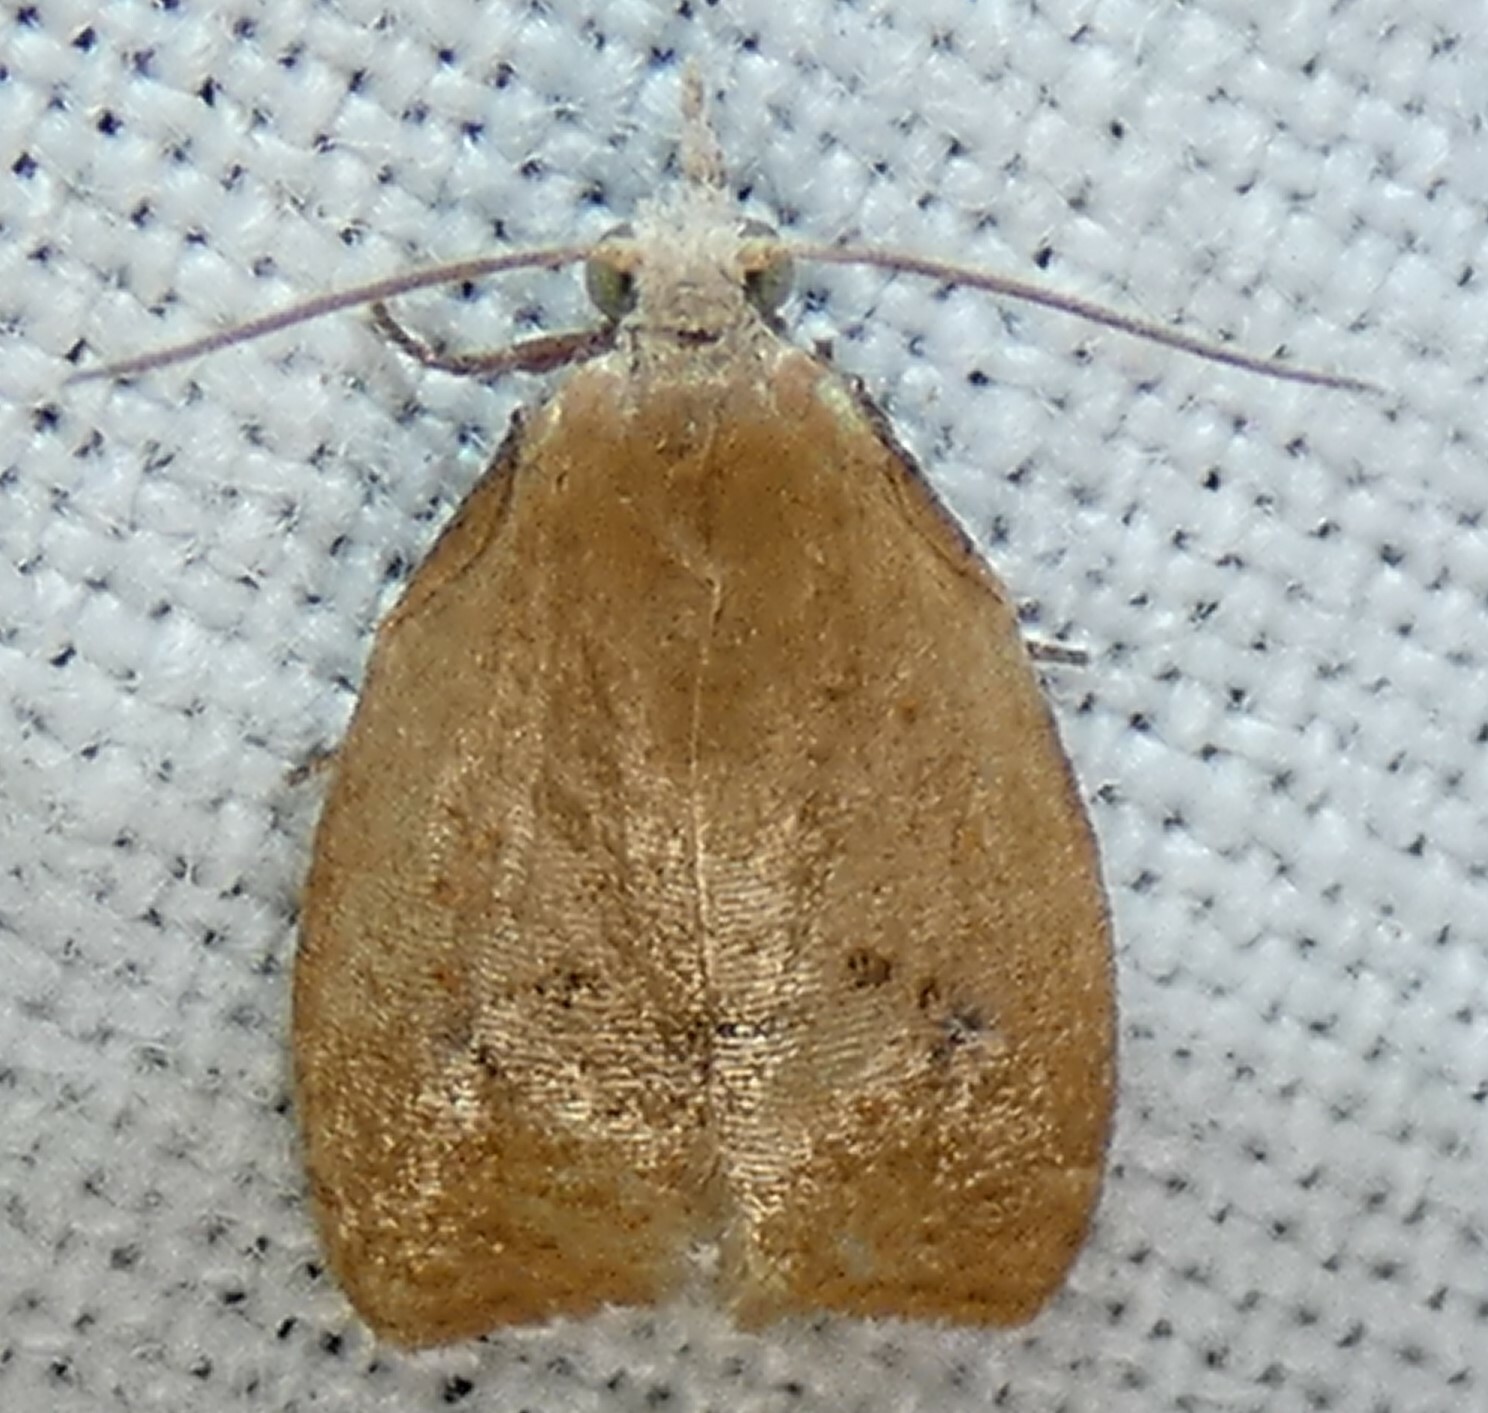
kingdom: Animalia
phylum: Arthropoda
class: Insecta
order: Lepidoptera
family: Tortricidae
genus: Sparganothoides
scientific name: Sparganothoides lentiginosana
